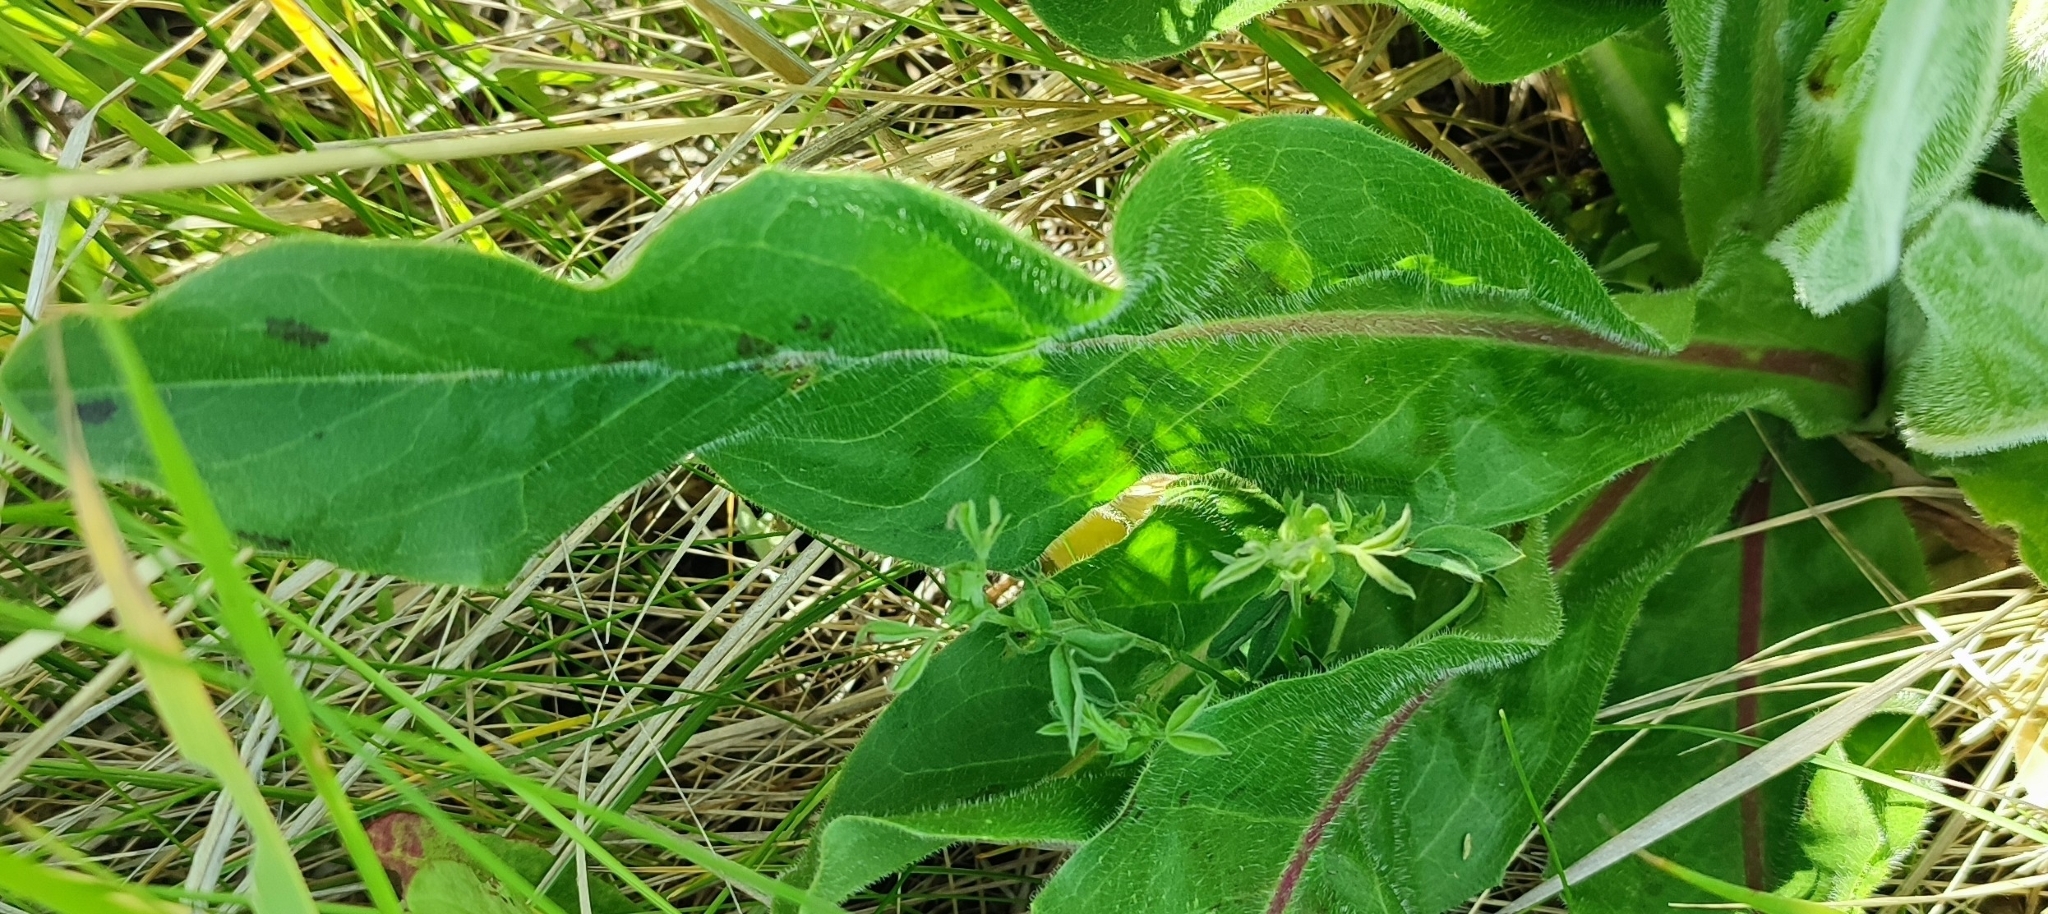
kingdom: Plantae
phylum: Tracheophyta
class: Magnoliopsida
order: Asterales
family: Asteraceae
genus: Trommsdorffia
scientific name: Trommsdorffia maculata
